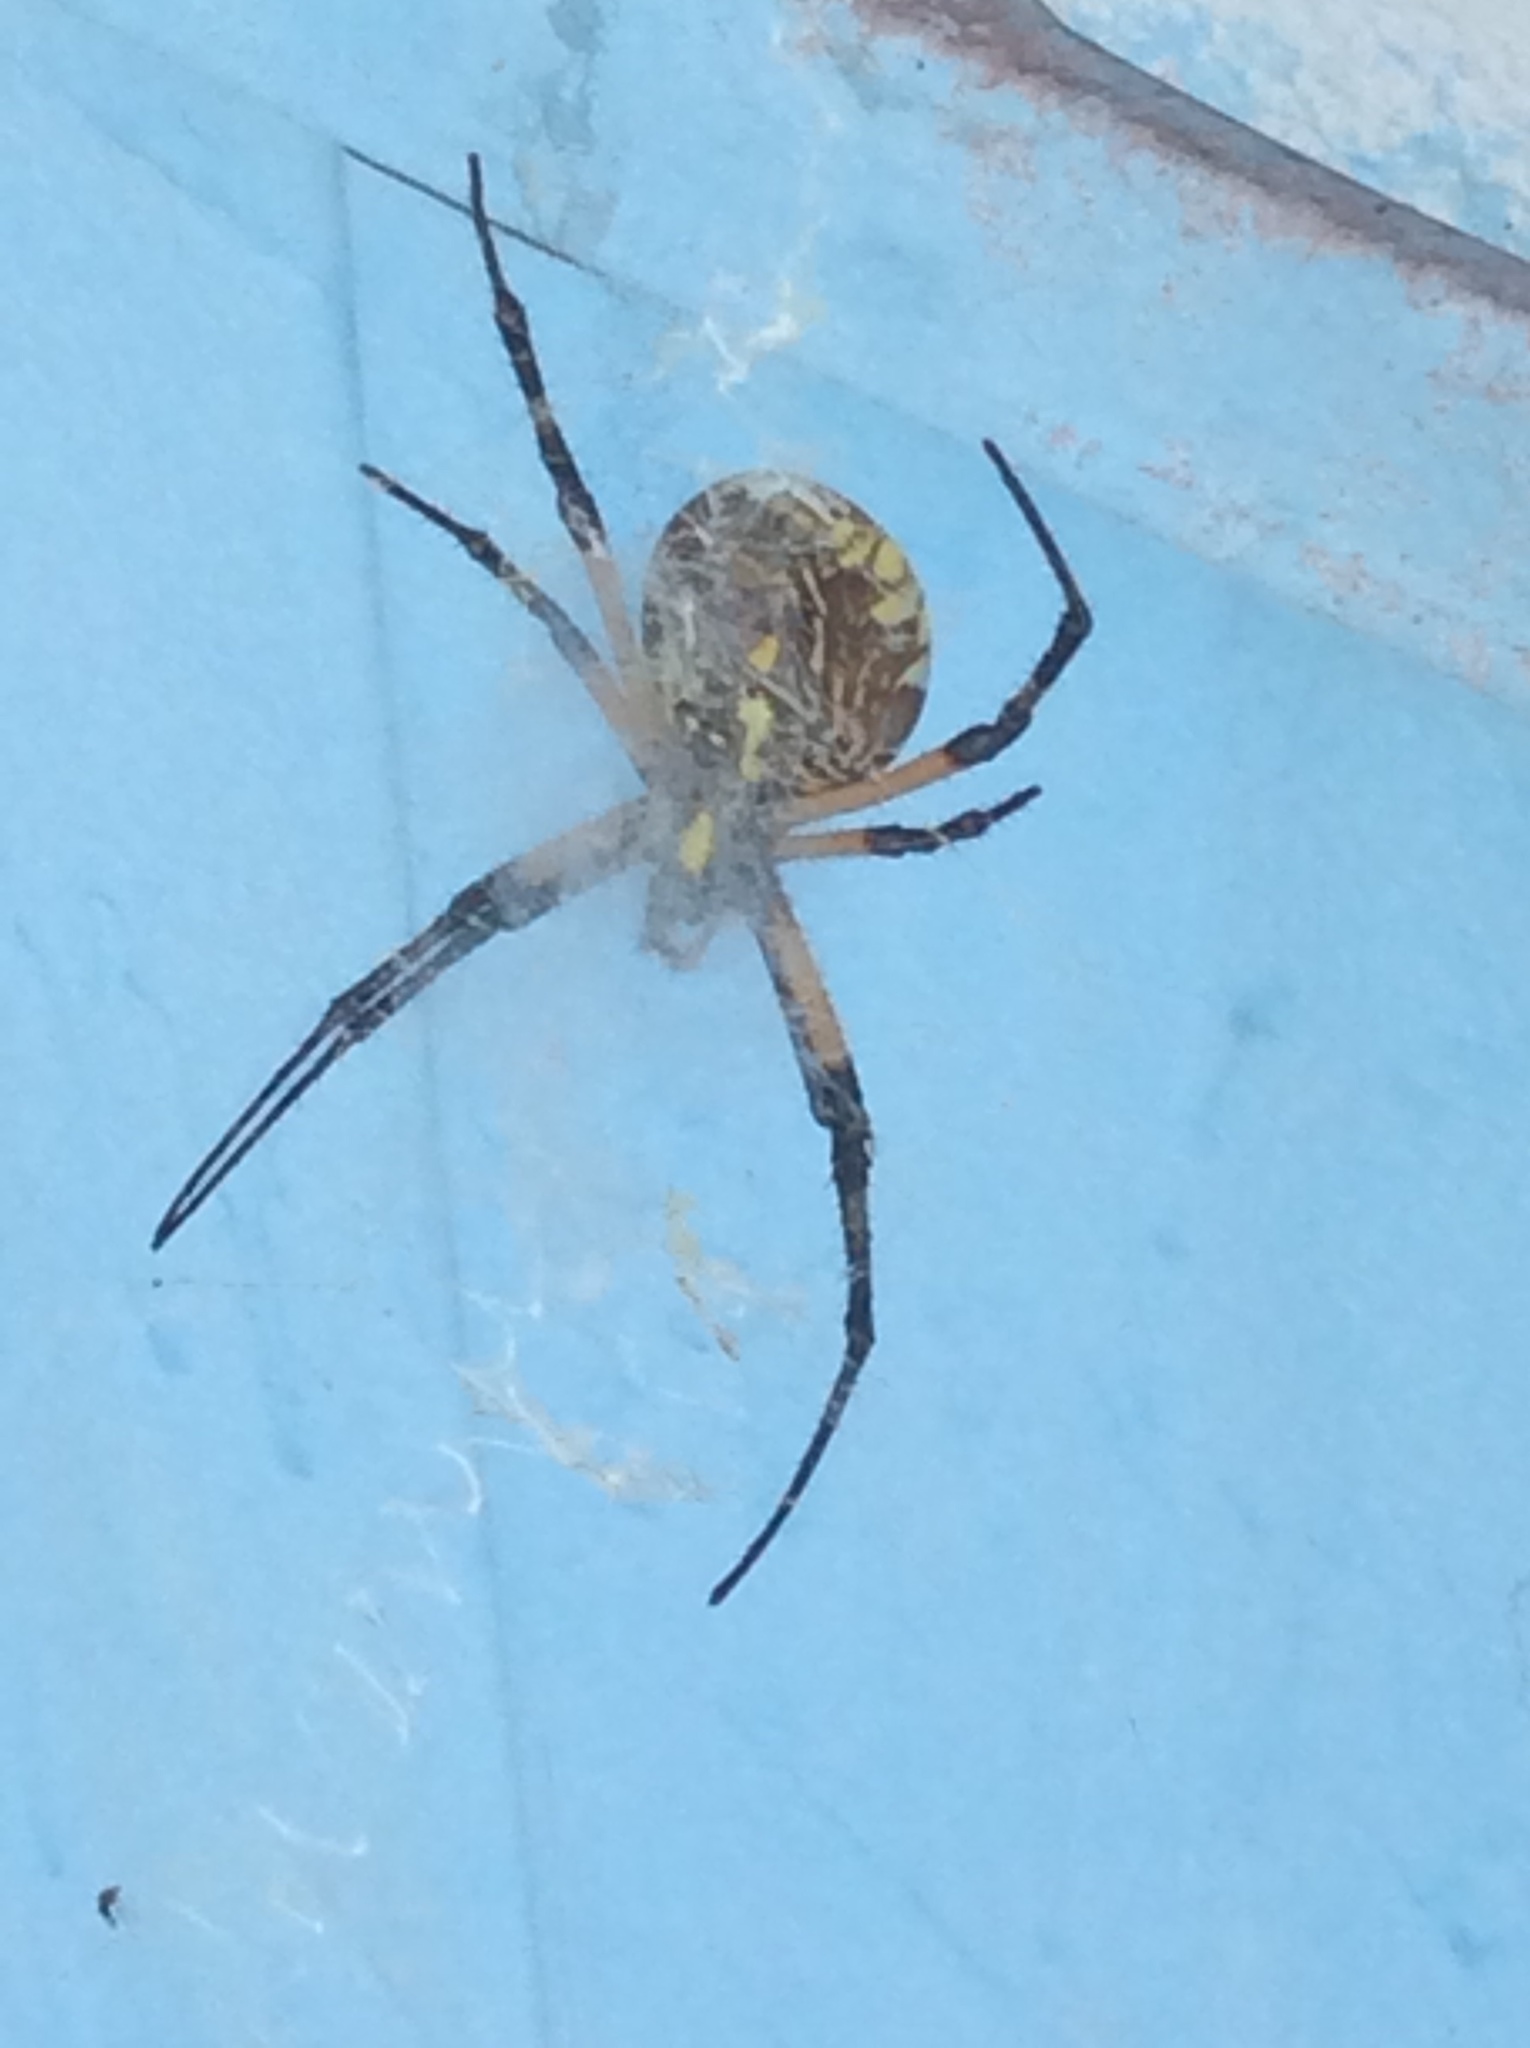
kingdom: Animalia
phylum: Arthropoda
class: Arachnida
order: Araneae
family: Araneidae
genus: Argiope
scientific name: Argiope aurantia
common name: Orb weavers
